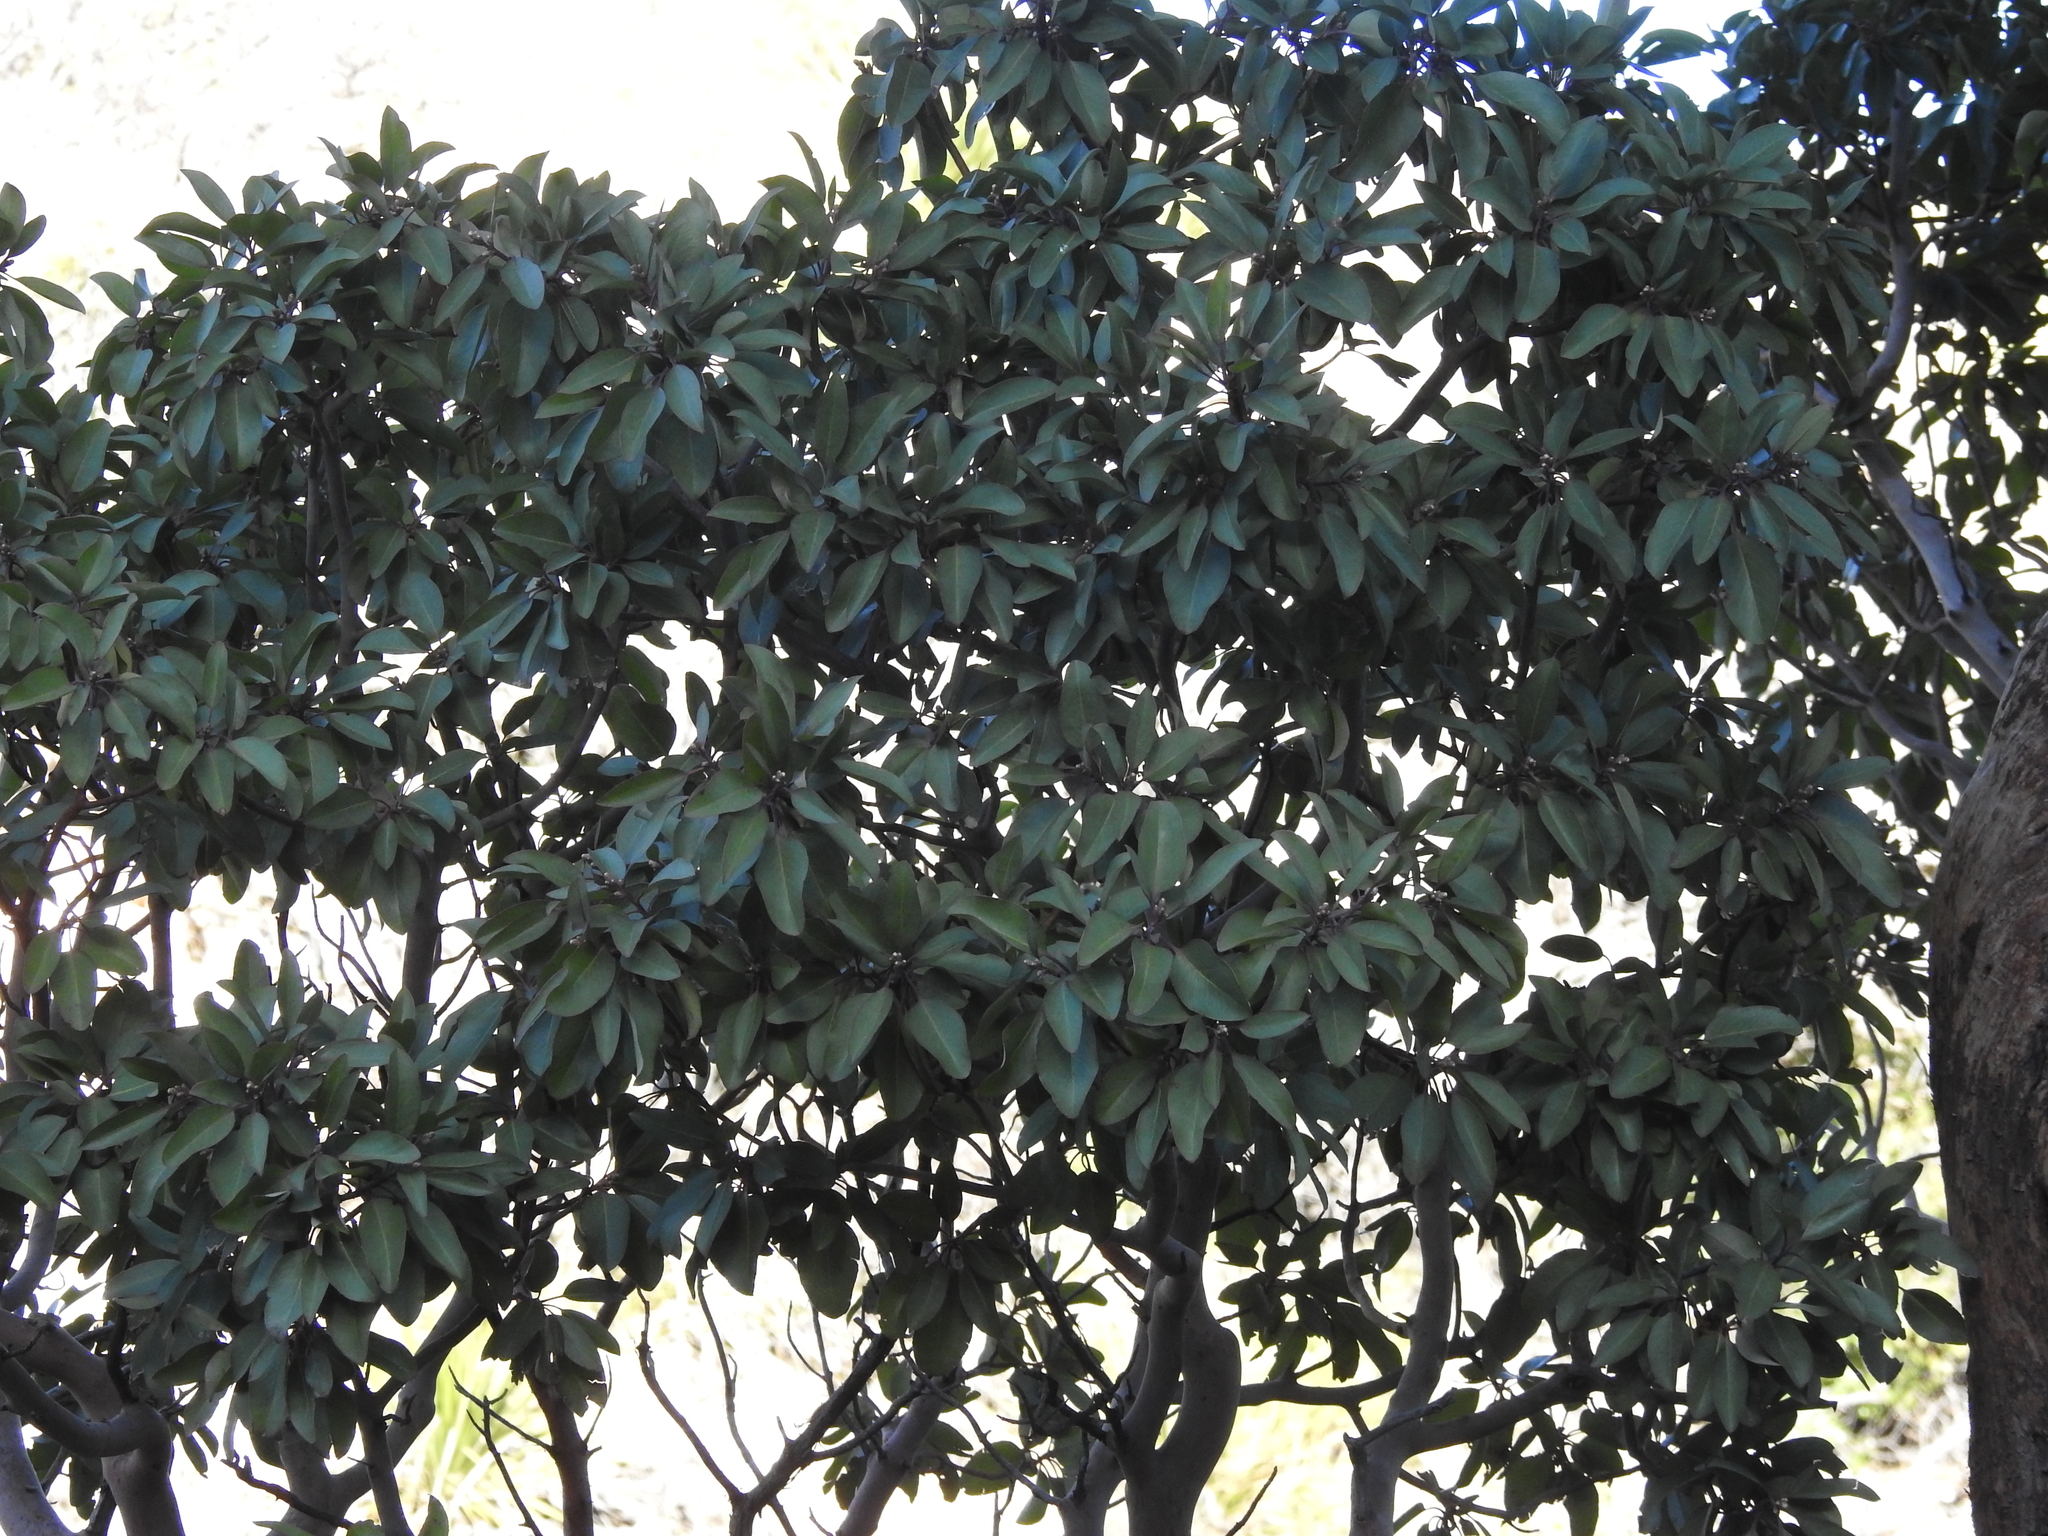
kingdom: Plantae
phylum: Tracheophyta
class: Magnoliopsida
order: Ericales
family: Ericaceae
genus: Arbutus
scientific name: Arbutus xalapensis
